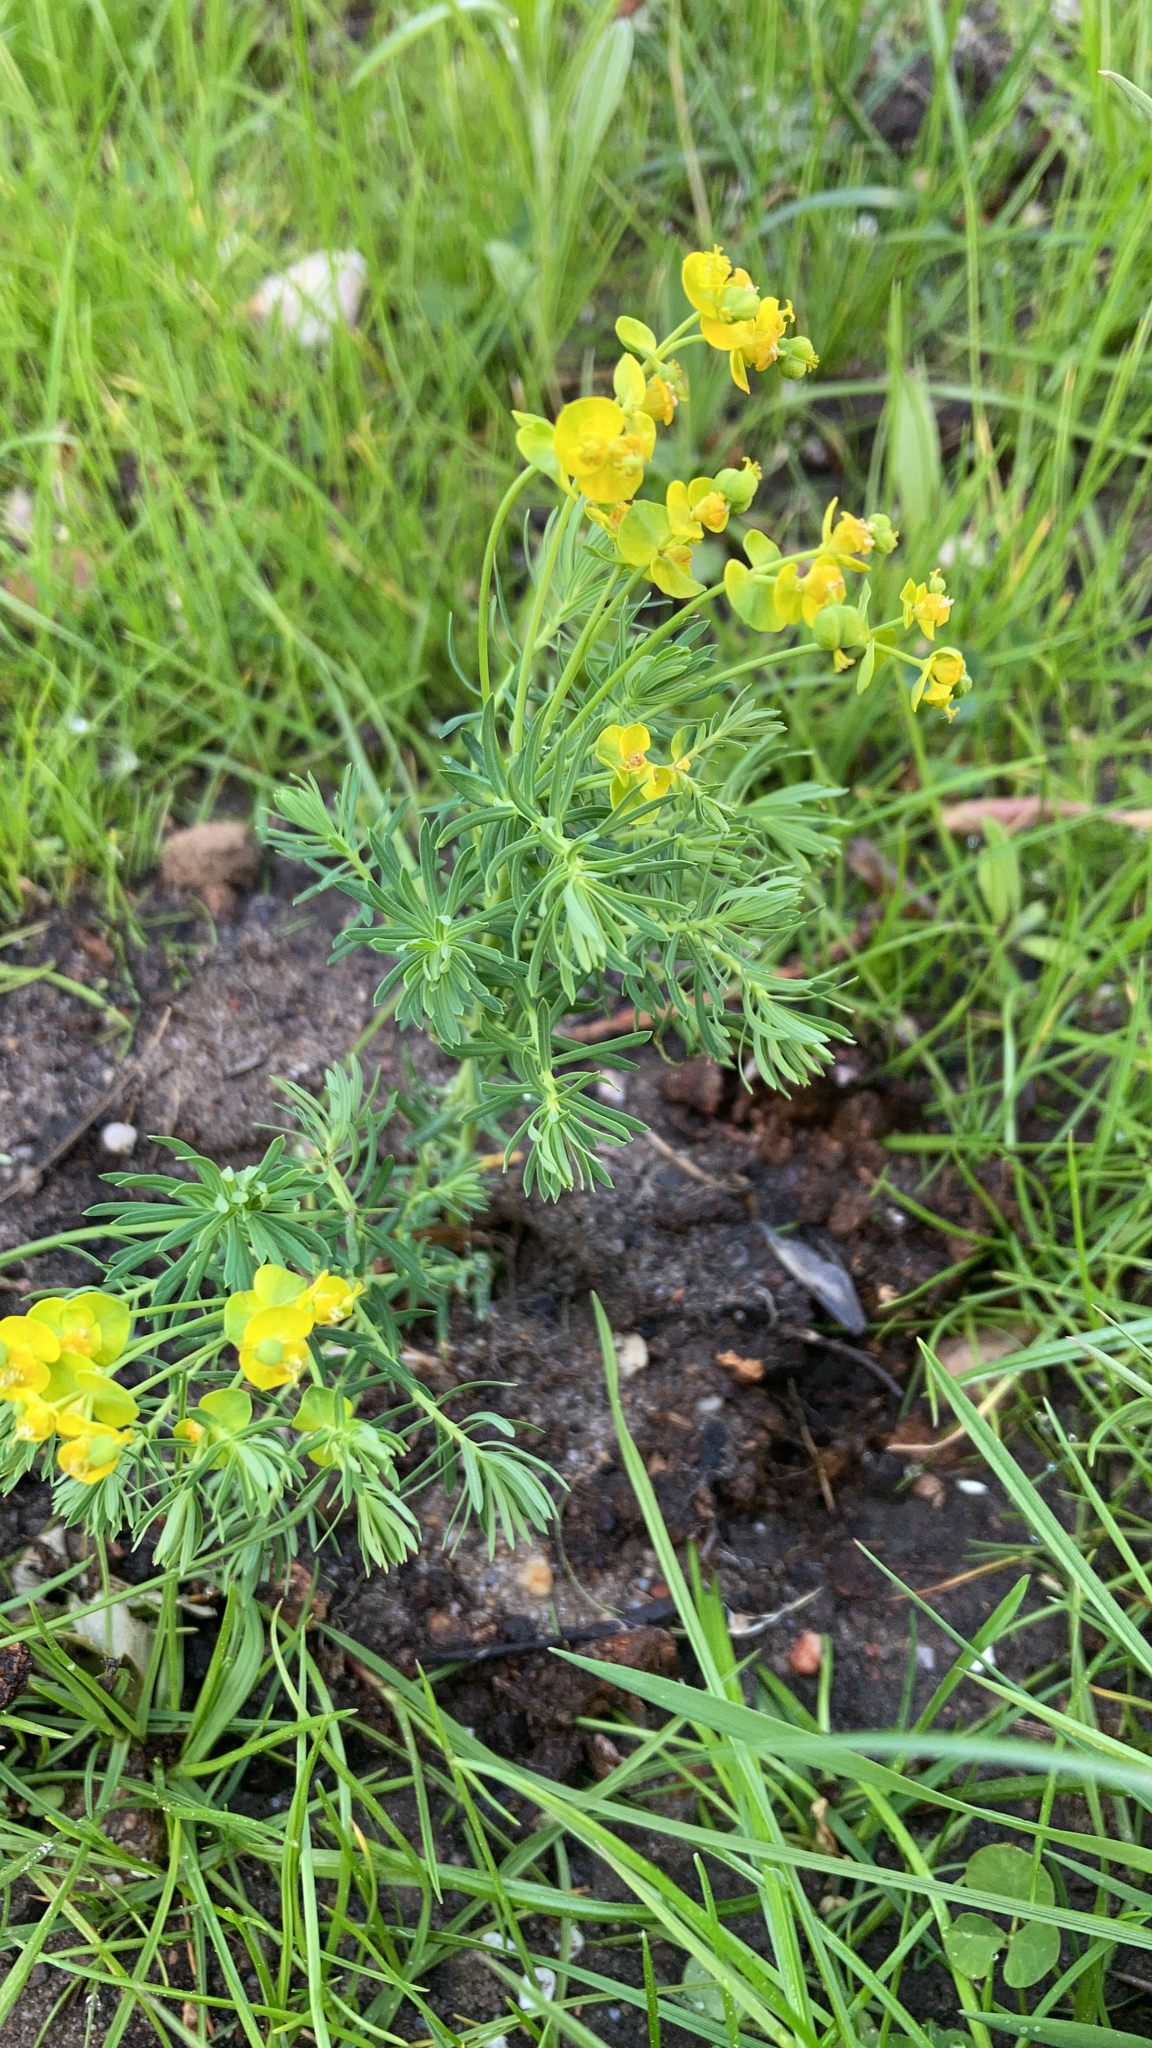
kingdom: Plantae
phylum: Tracheophyta
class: Magnoliopsida
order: Malpighiales
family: Euphorbiaceae
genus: Euphorbia
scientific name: Euphorbia cyparissias
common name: Cypress spurge
